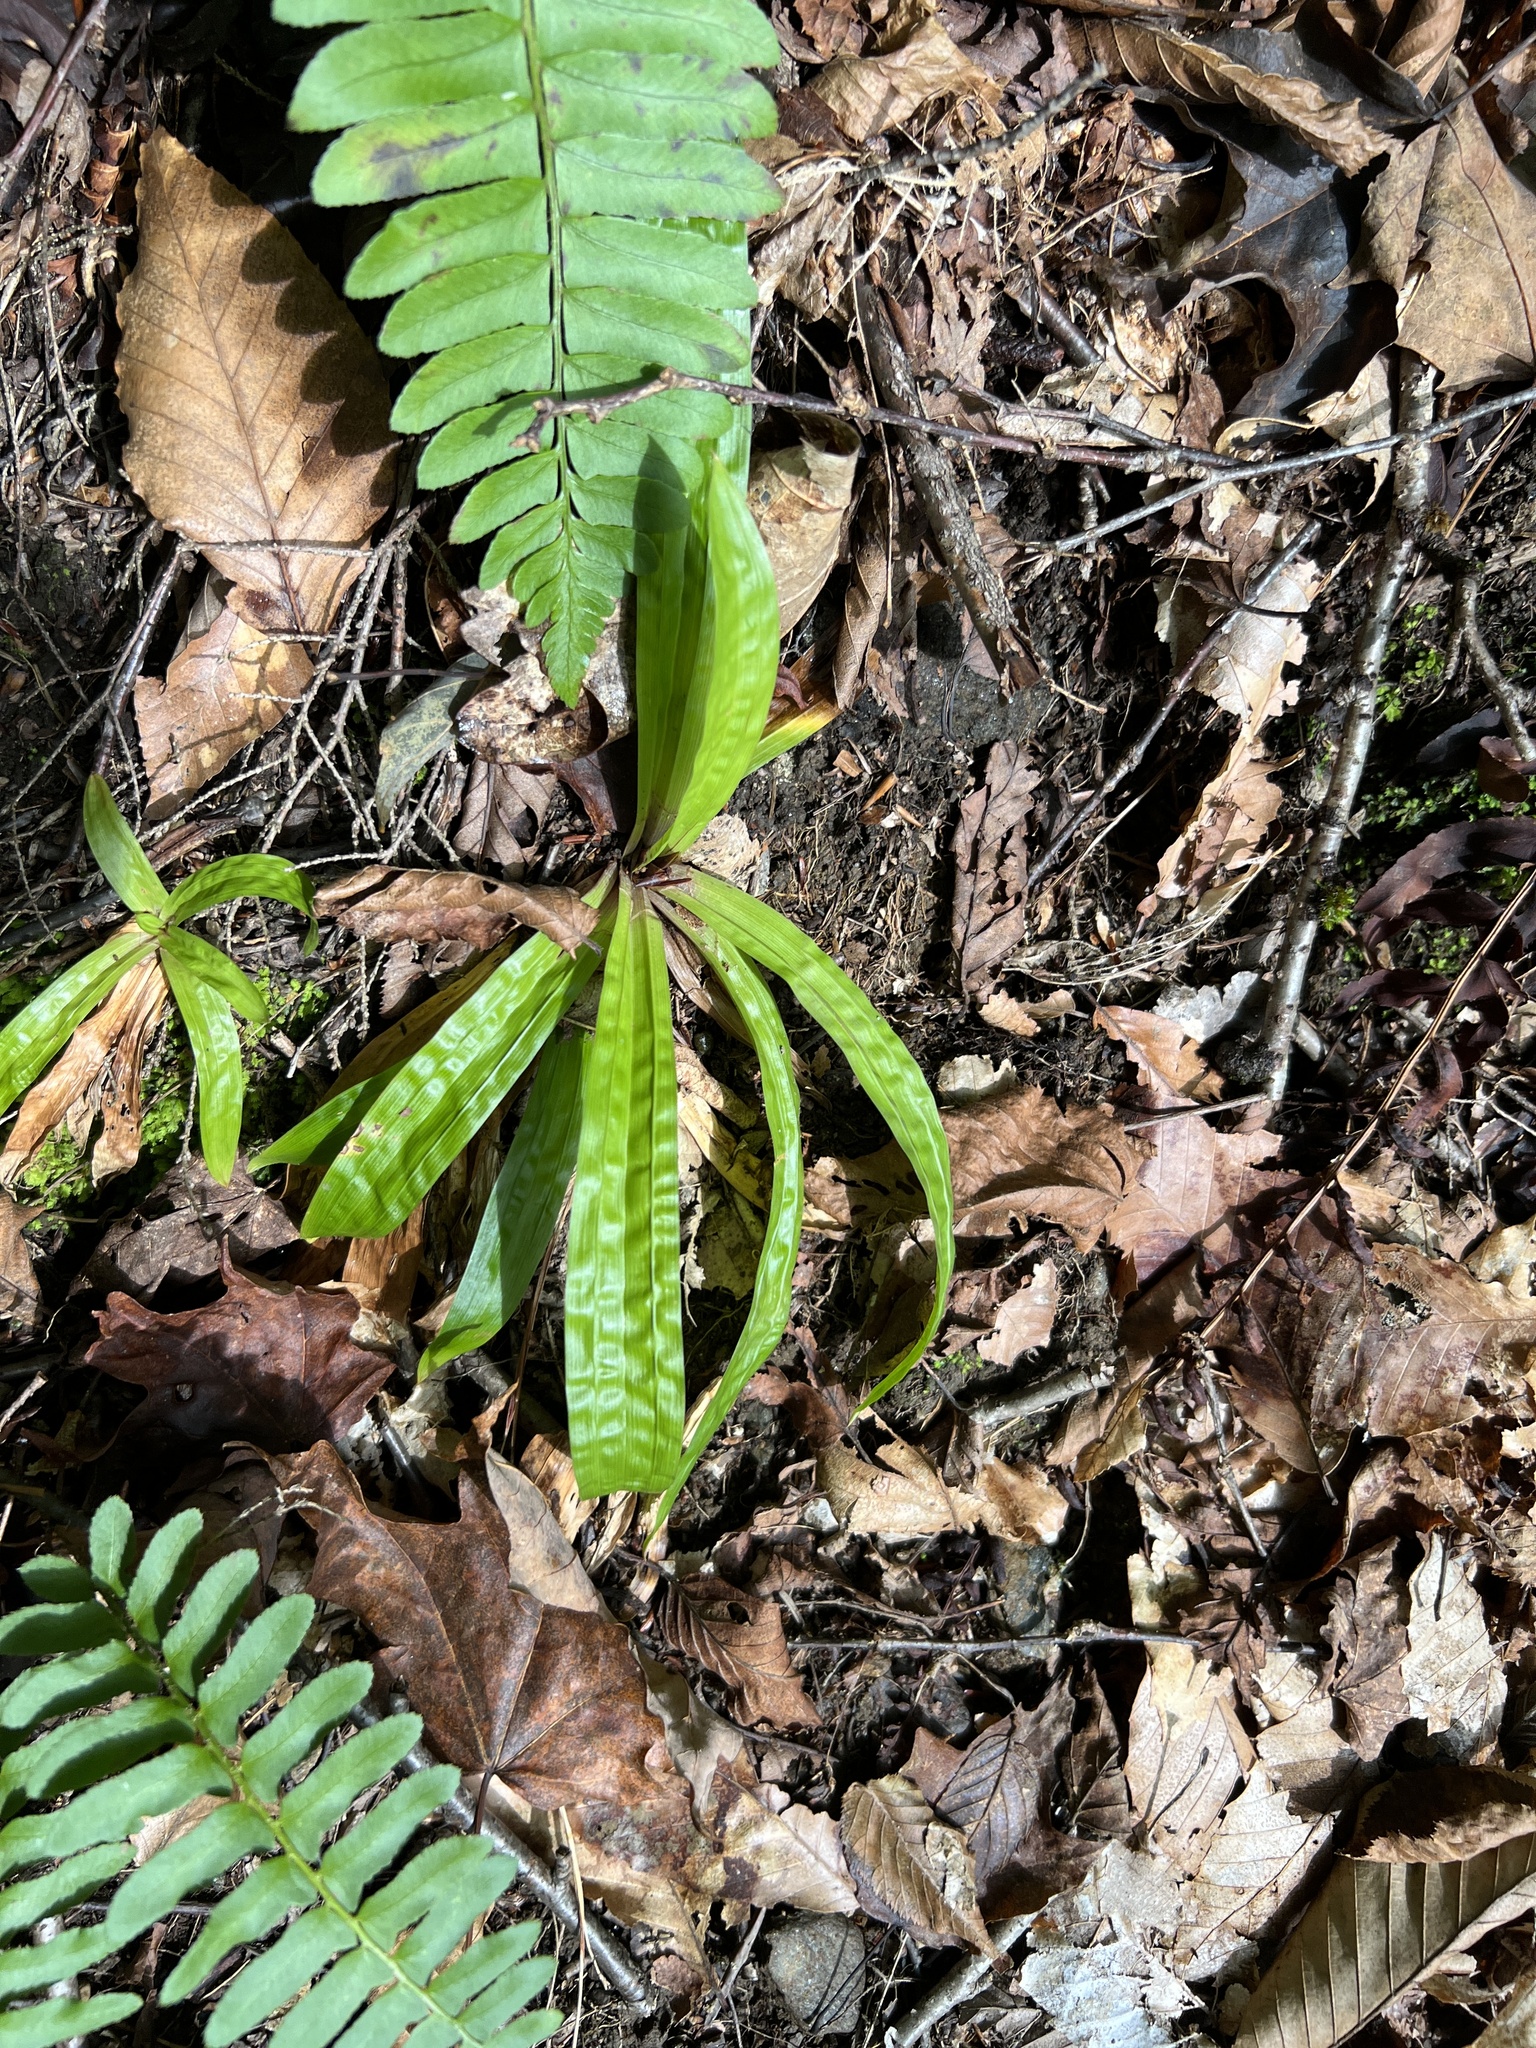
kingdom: Plantae
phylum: Tracheophyta
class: Liliopsida
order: Poales
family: Cyperaceae
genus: Carex
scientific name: Carex plantaginea
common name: Plantain-leaved sedge
